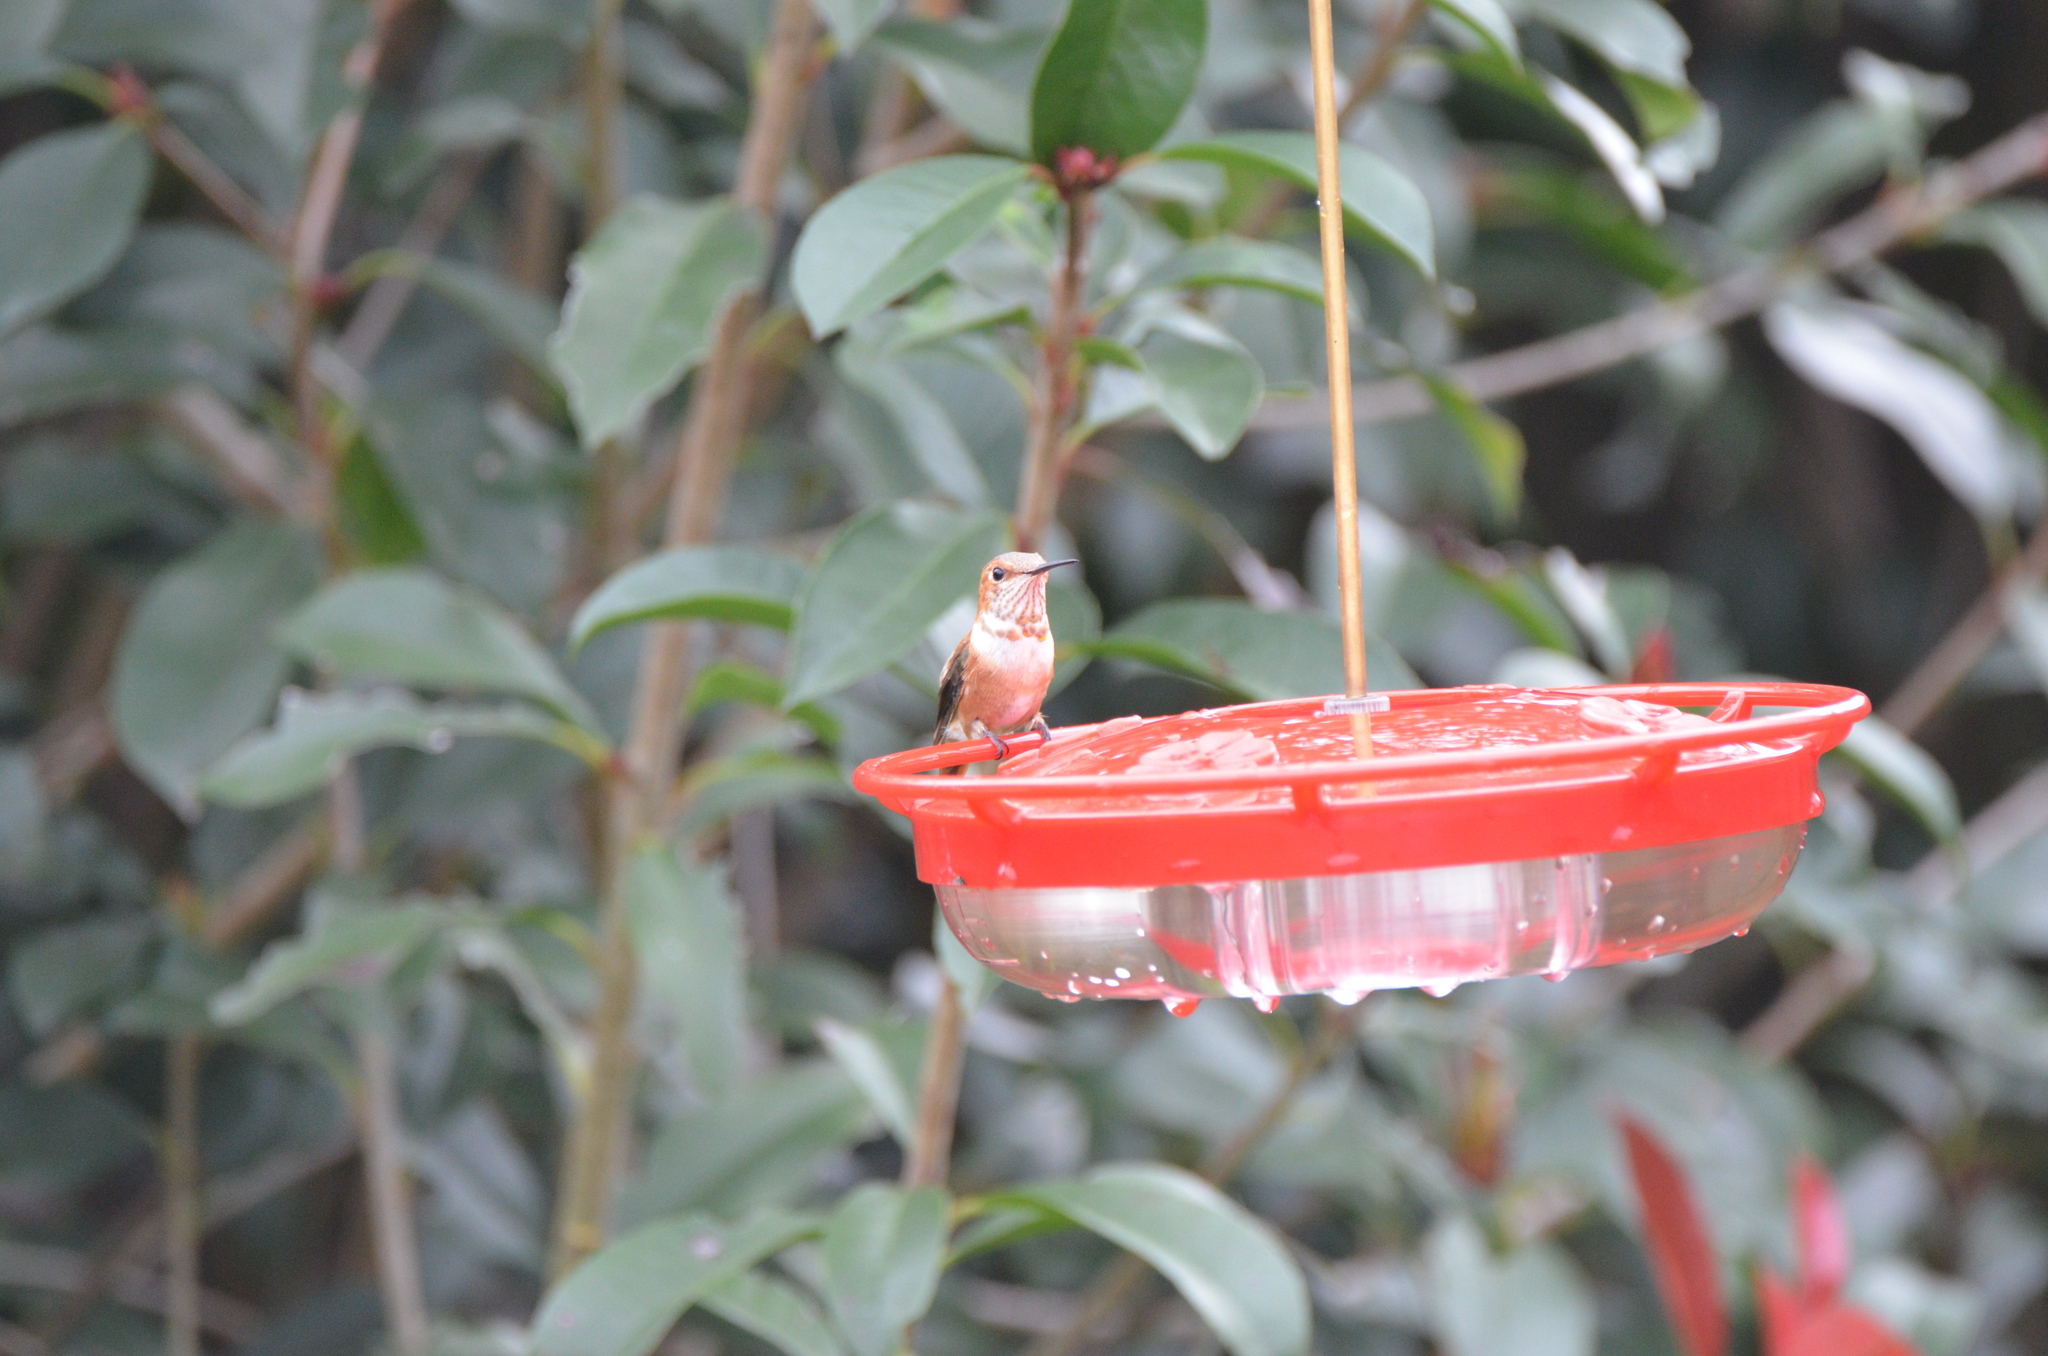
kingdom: Animalia
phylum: Chordata
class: Aves
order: Apodiformes
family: Trochilidae
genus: Selasphorus
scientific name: Selasphorus rufus
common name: Rufous hummingbird
